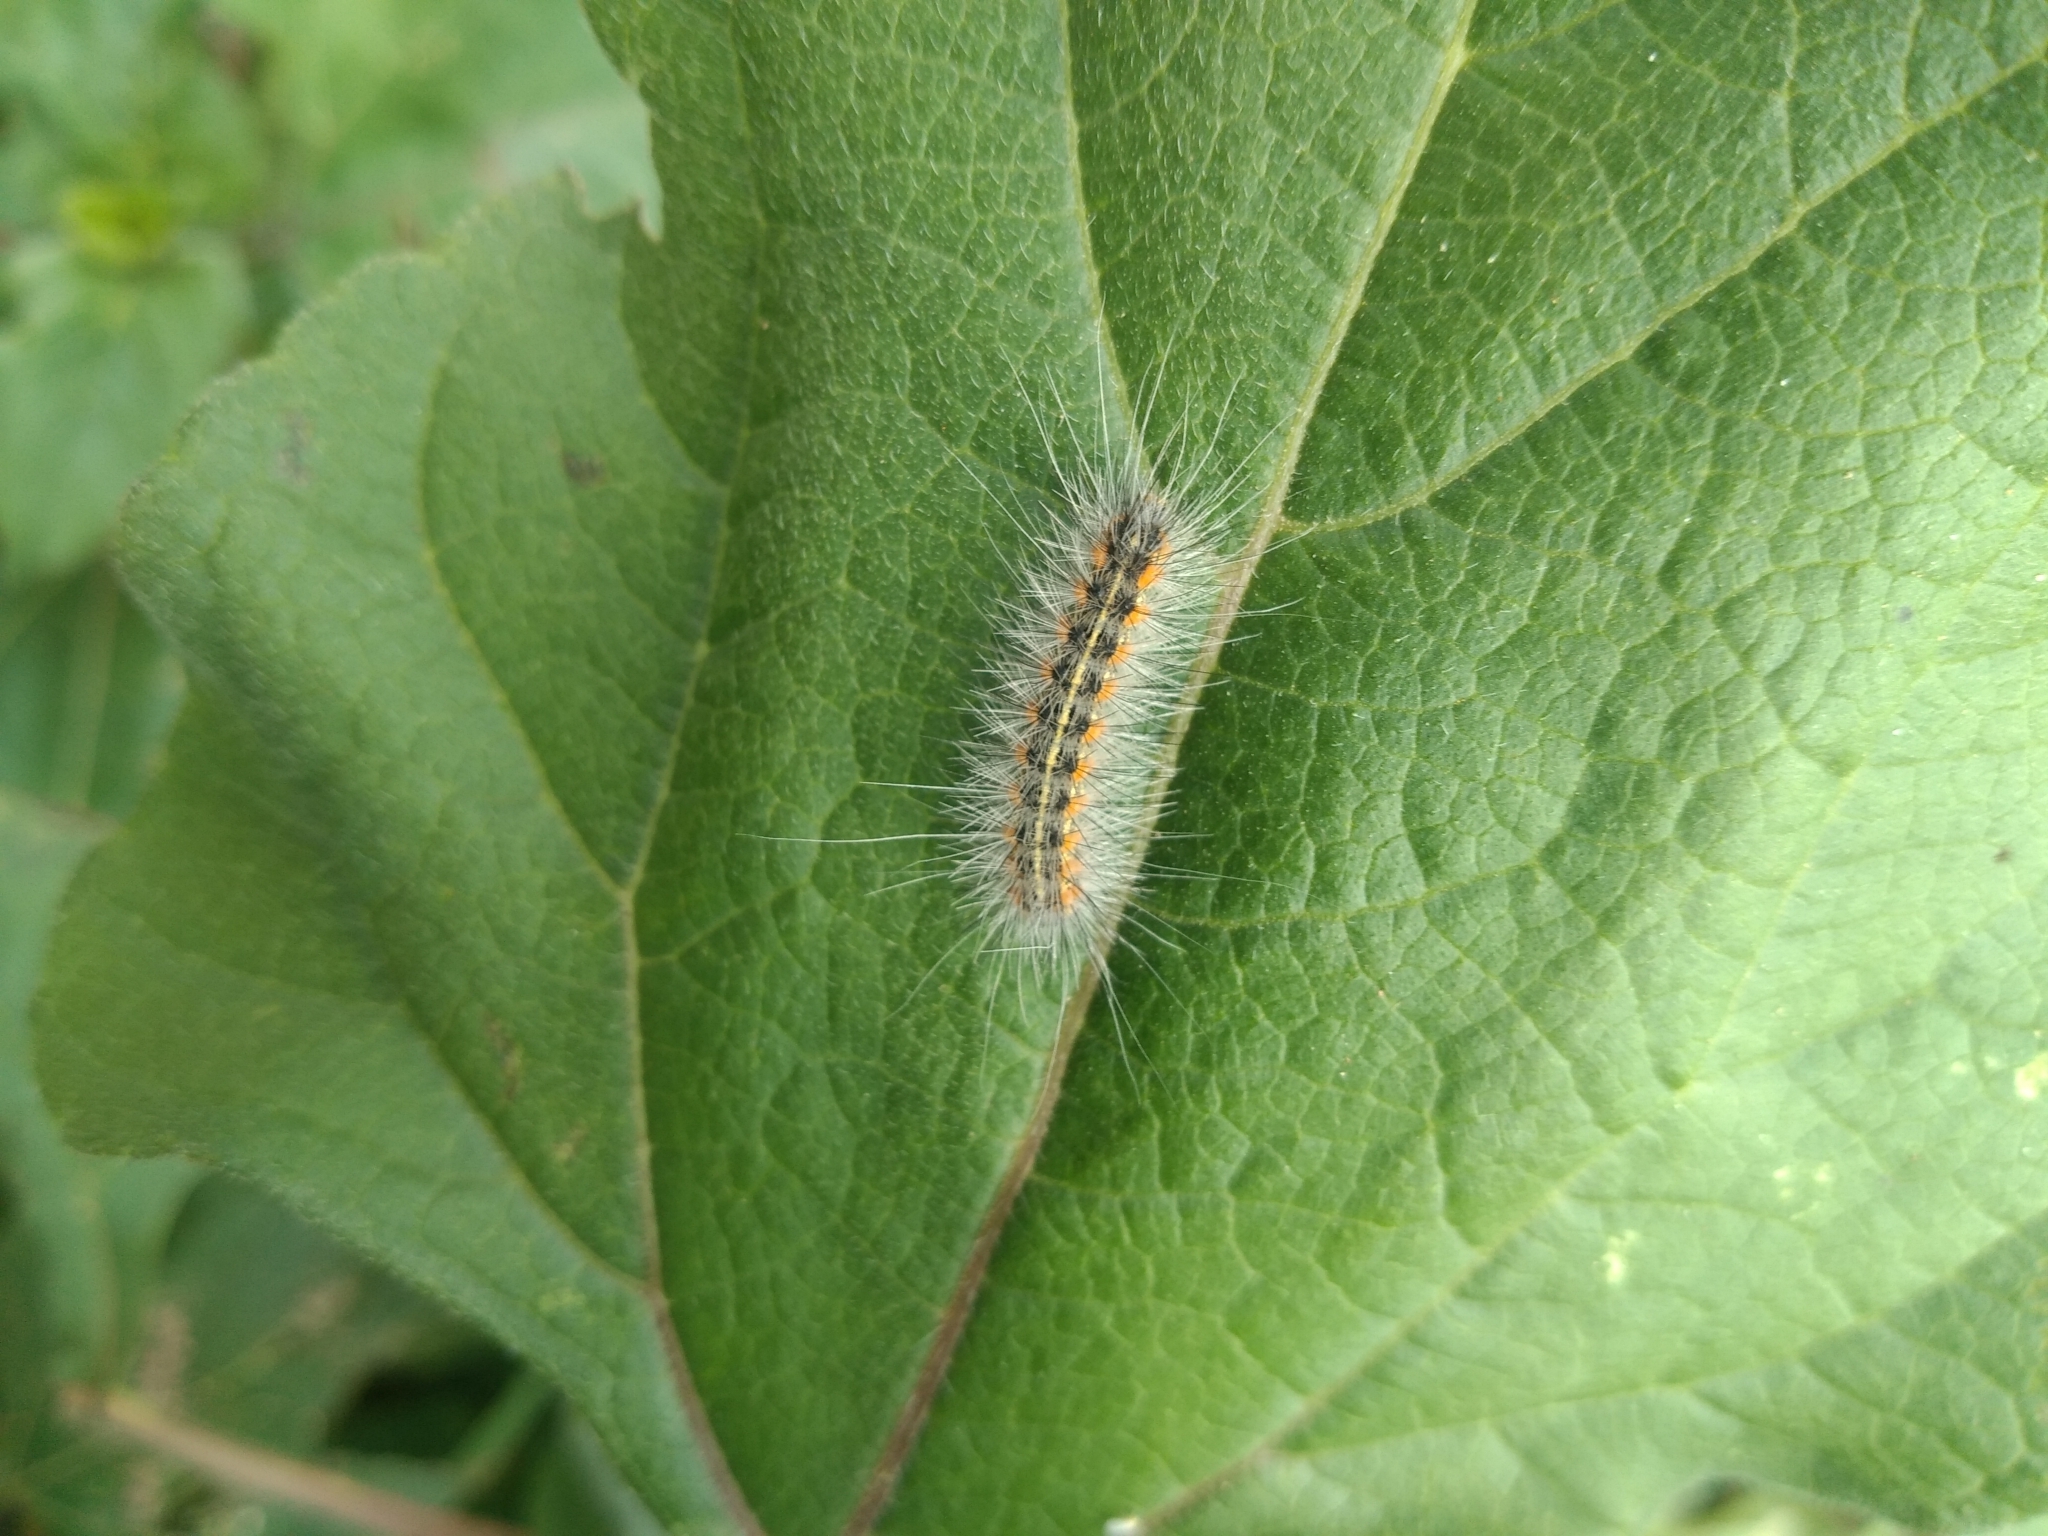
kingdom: Animalia
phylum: Arthropoda
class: Insecta
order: Lepidoptera
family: Erebidae
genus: Hyphantria
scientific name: Hyphantria cunea
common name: American white moth
